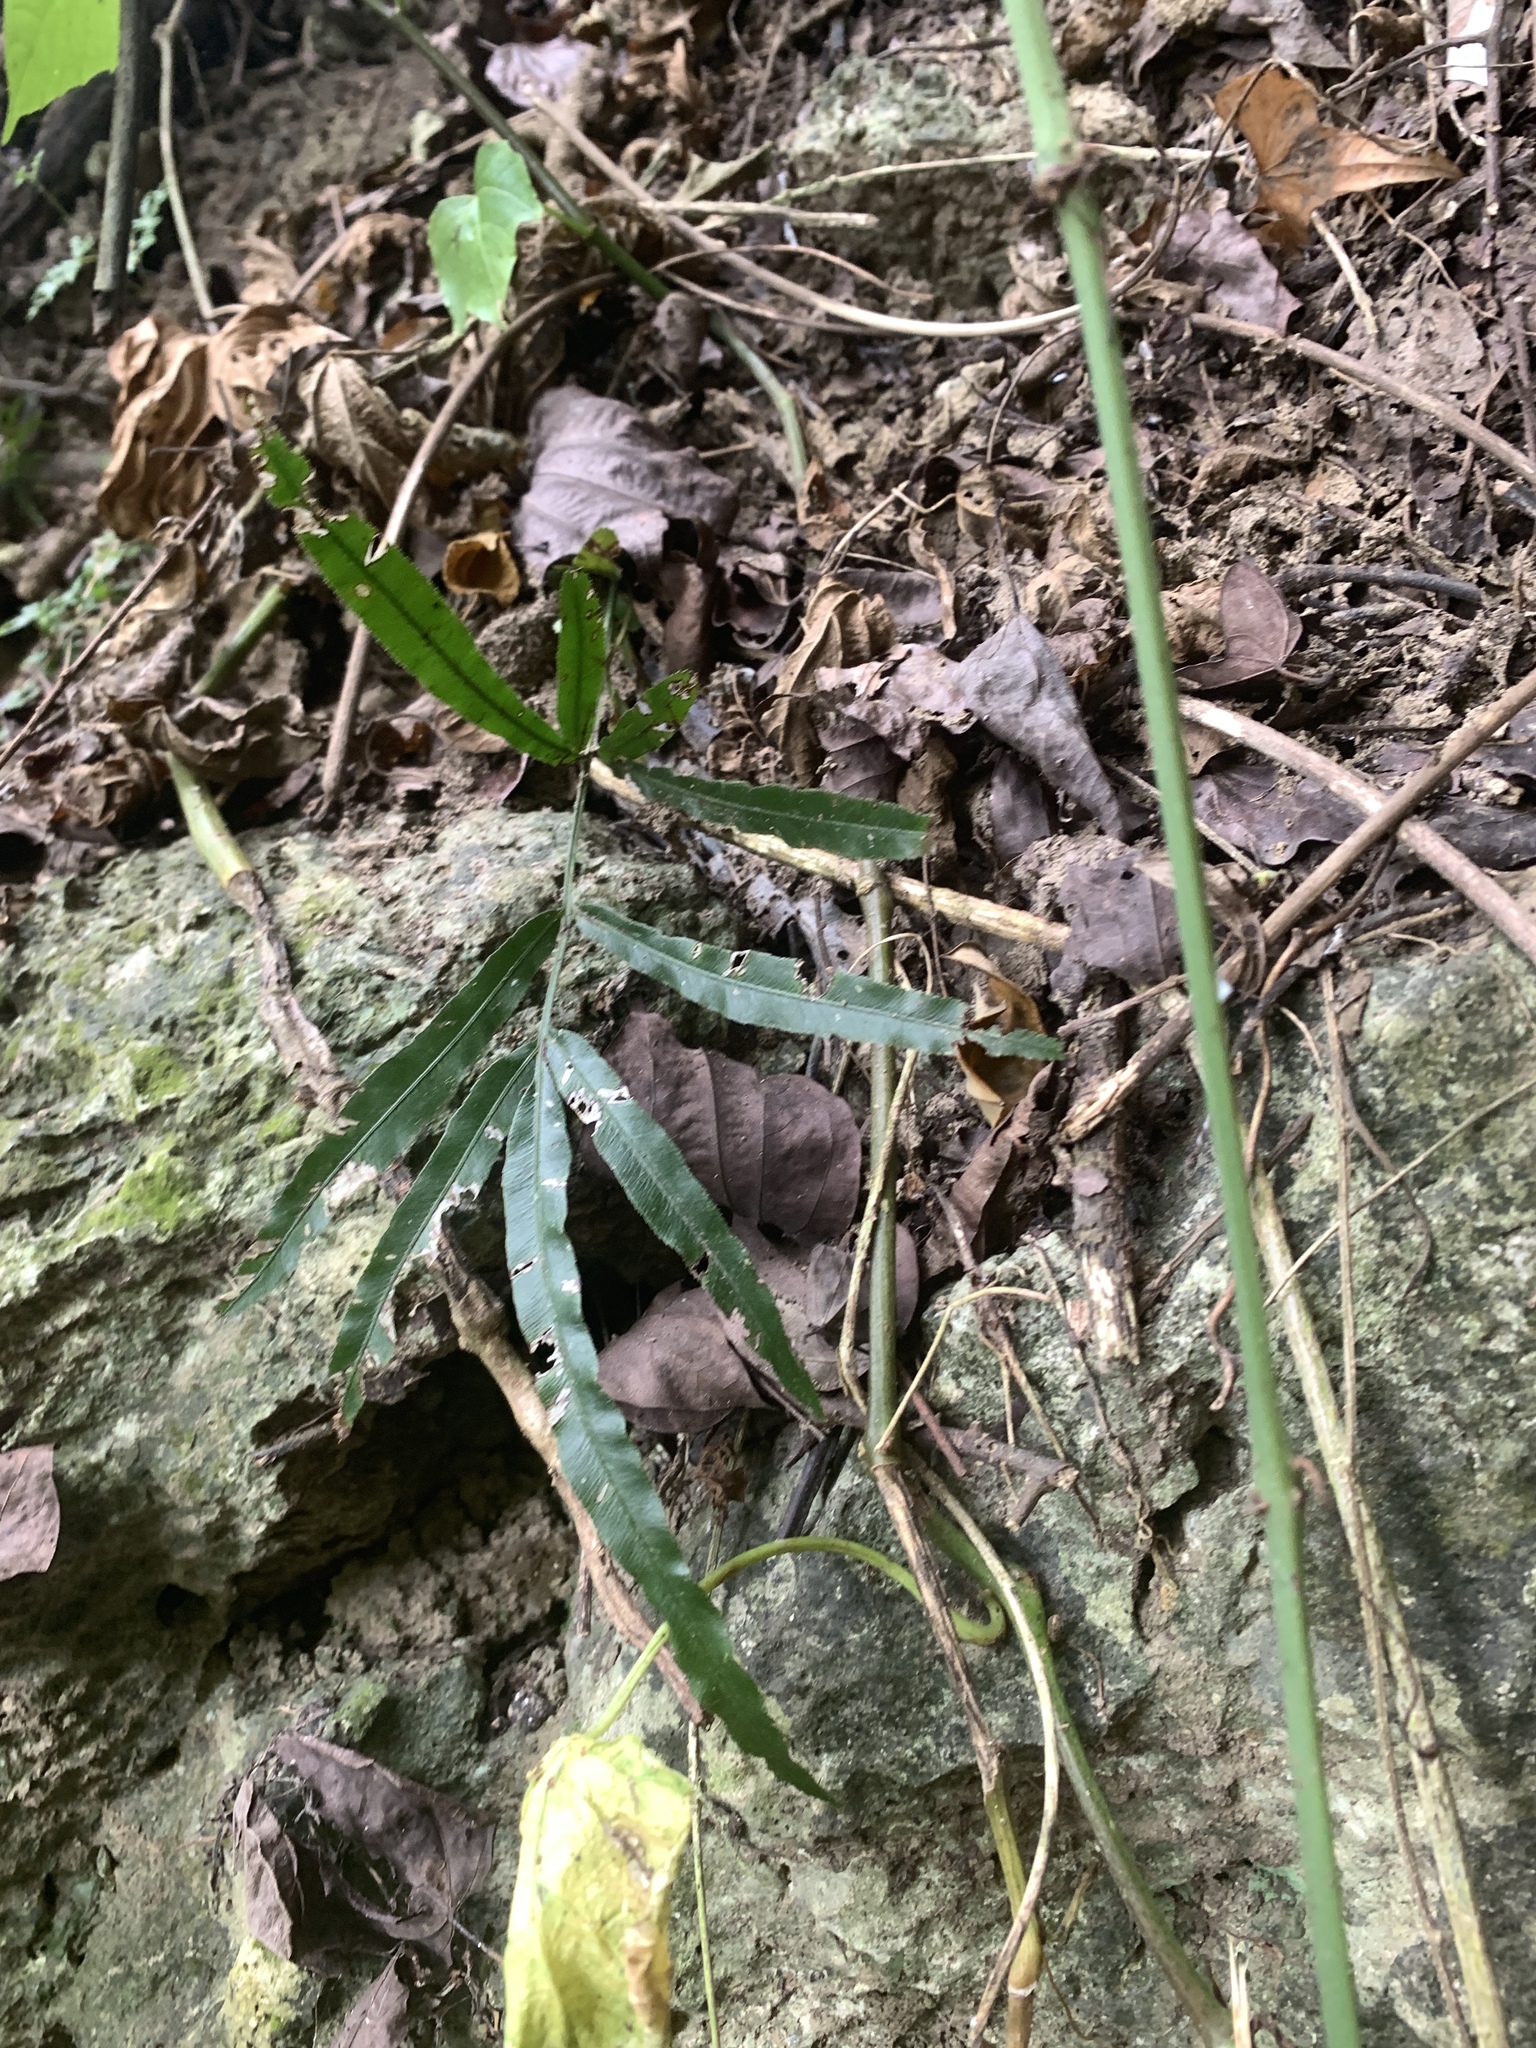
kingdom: Plantae
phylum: Tracheophyta
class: Polypodiopsida
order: Polypodiales
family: Pteridaceae
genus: Pteris
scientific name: Pteris ensiformis
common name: Sword brake
